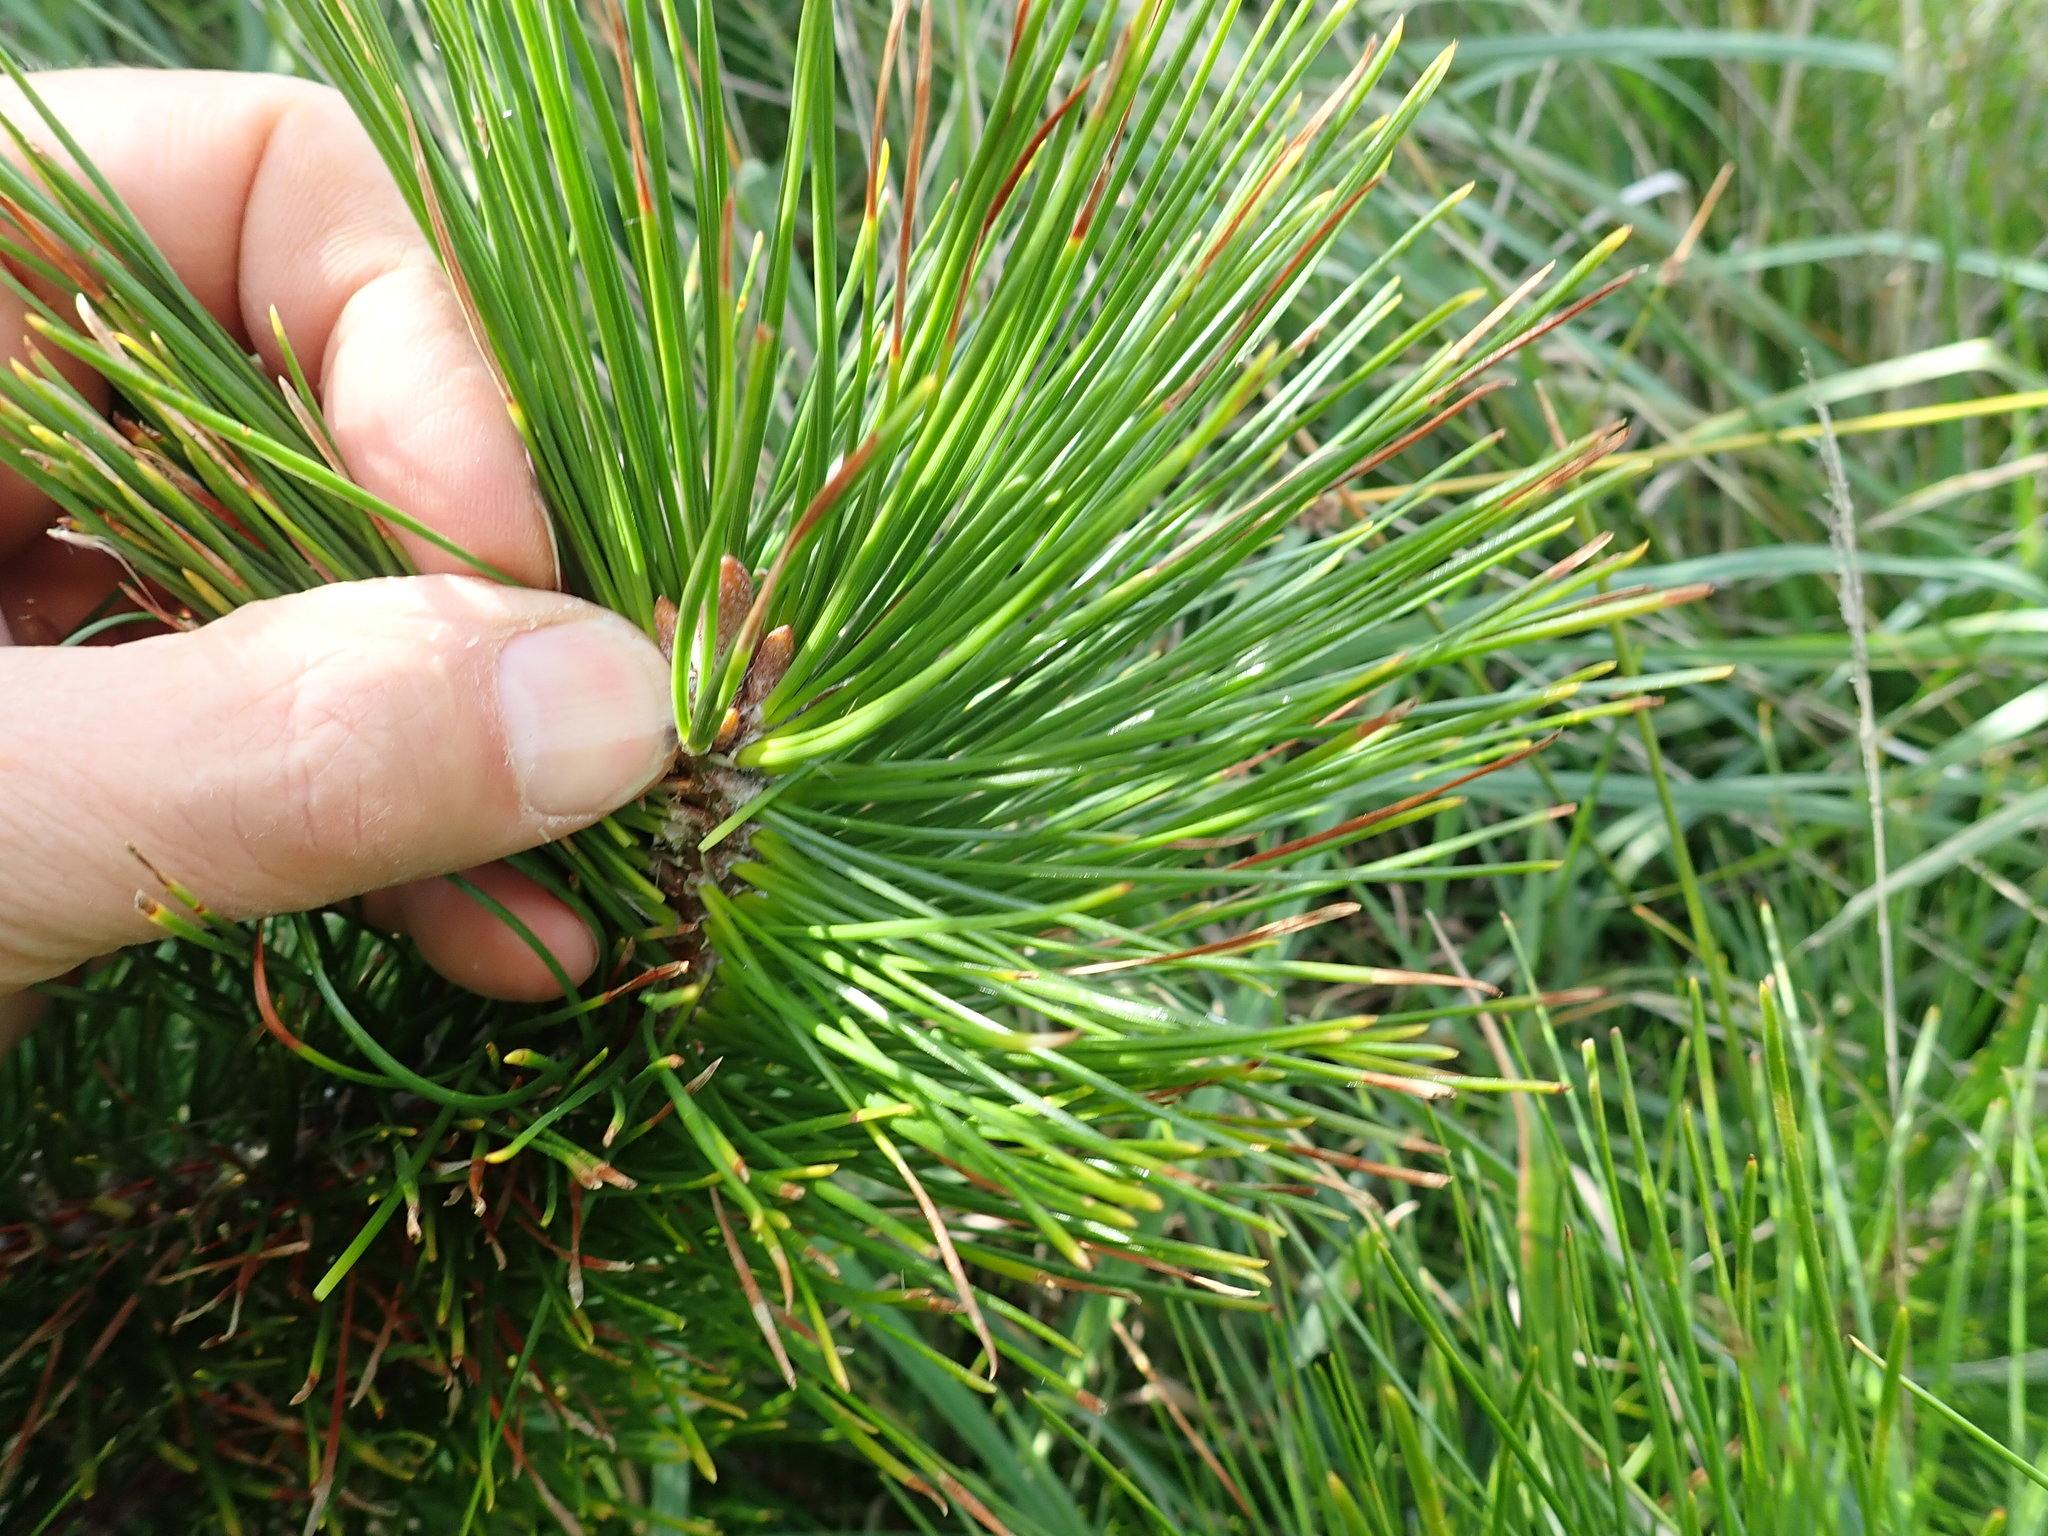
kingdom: Plantae
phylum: Tracheophyta
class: Pinopsida
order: Pinales
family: Pinaceae
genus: Pinus
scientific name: Pinus radiata
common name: Monterey pine
